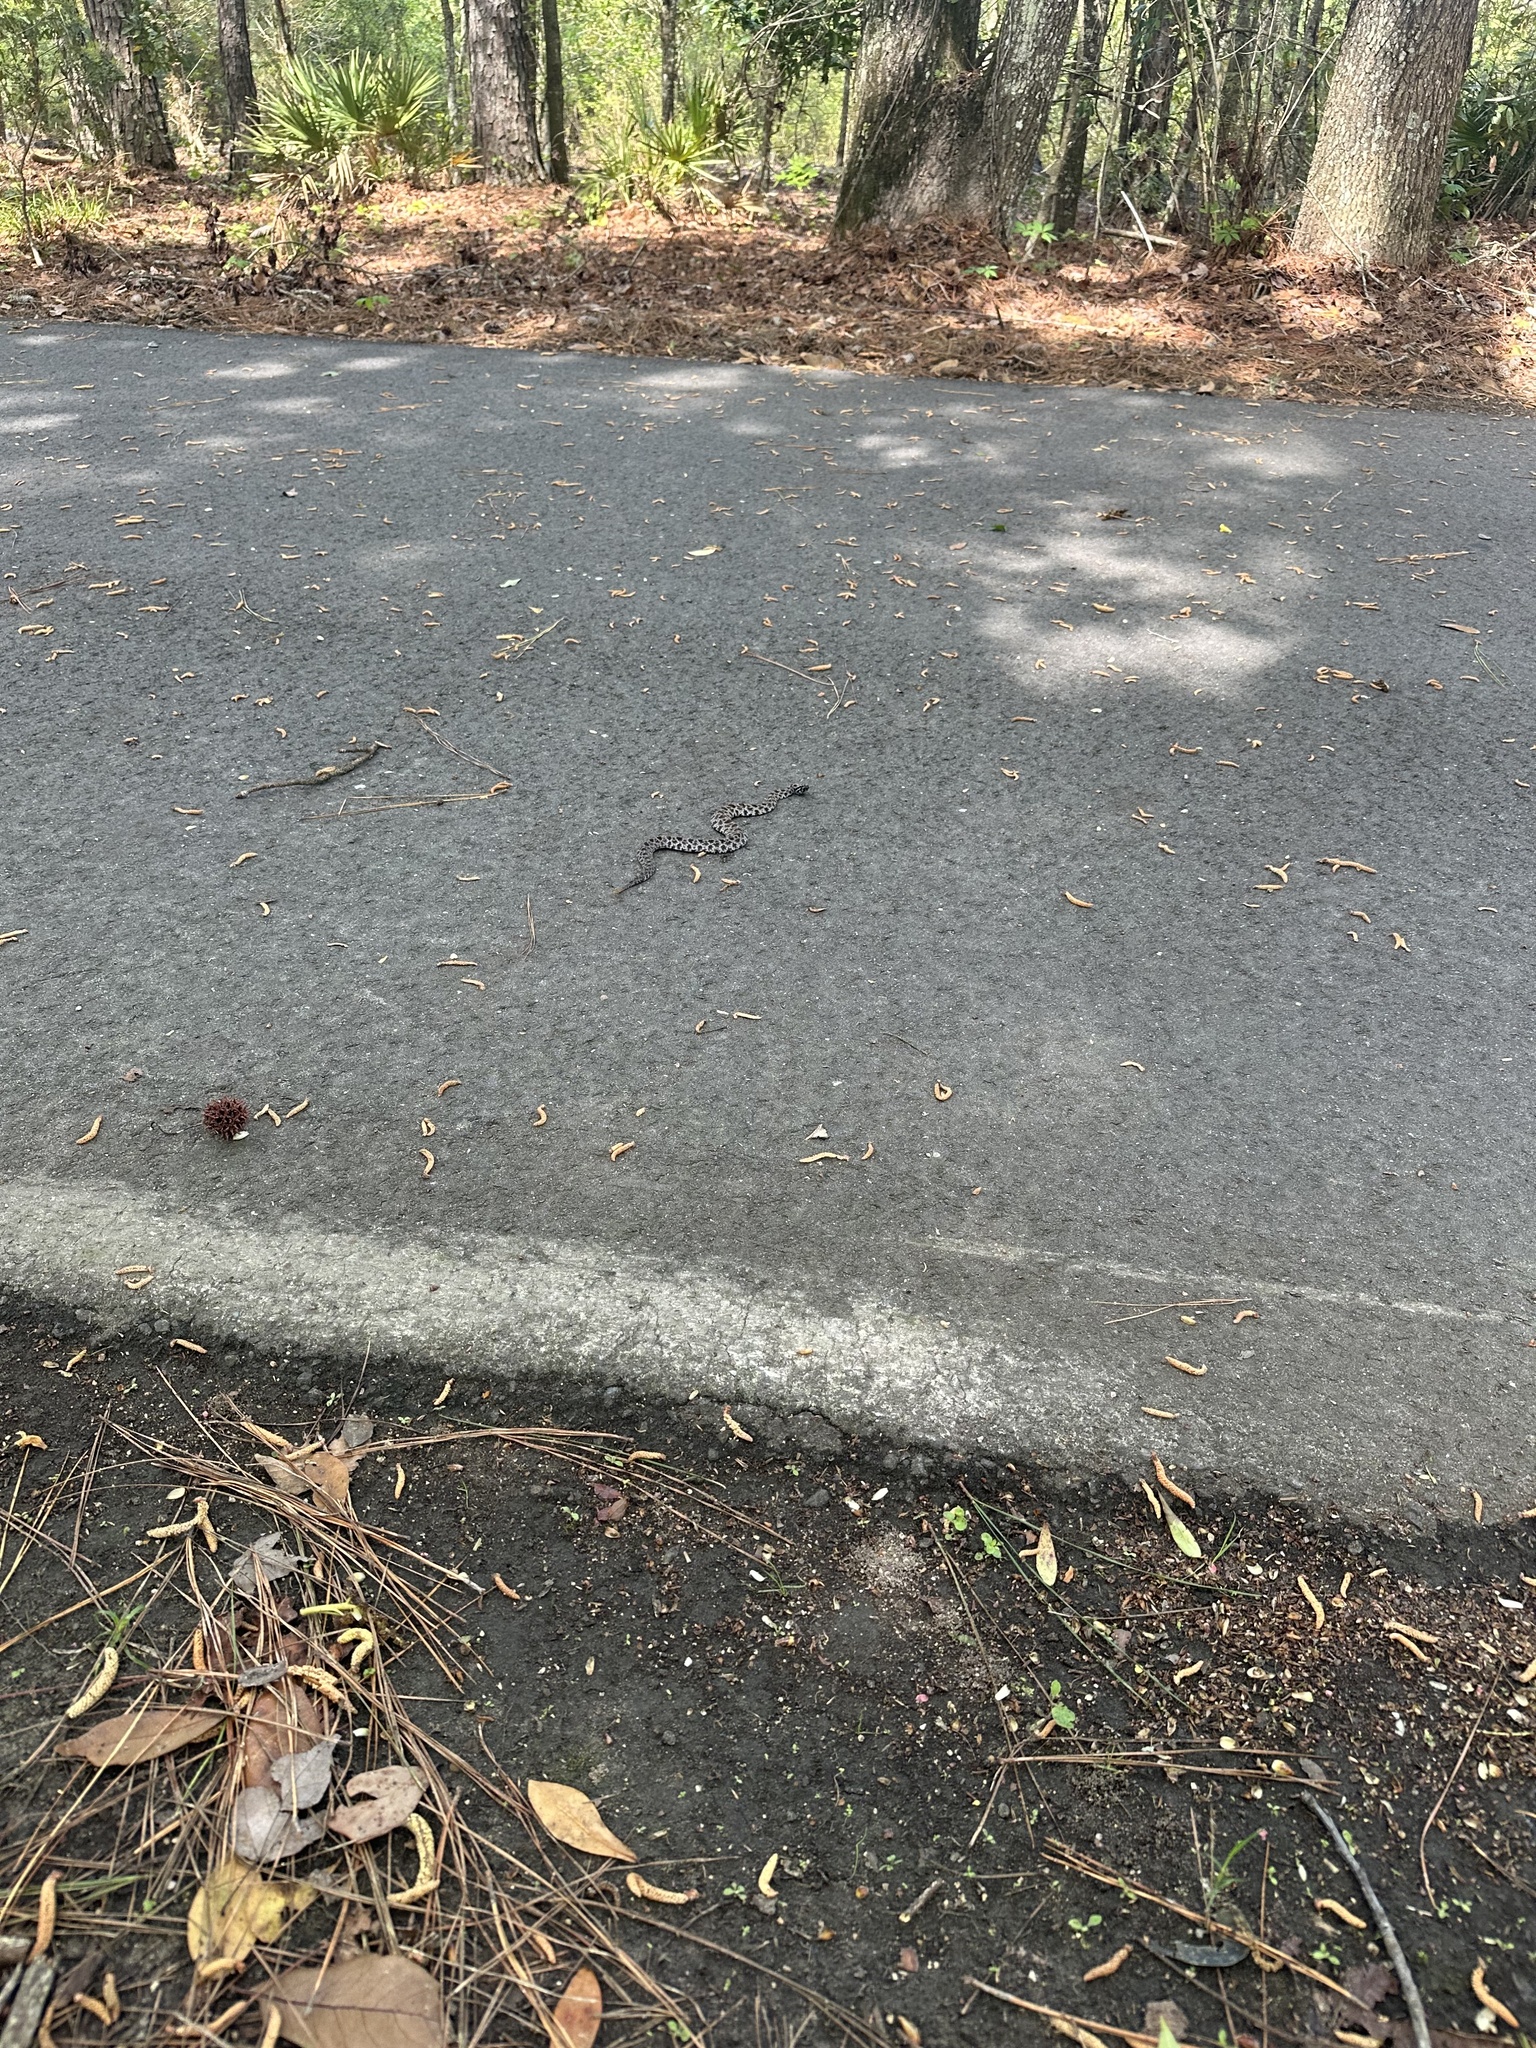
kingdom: Animalia
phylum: Chordata
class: Squamata
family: Viperidae
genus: Sistrurus
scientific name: Sistrurus miliarius
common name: Pygmy rattlesnake
